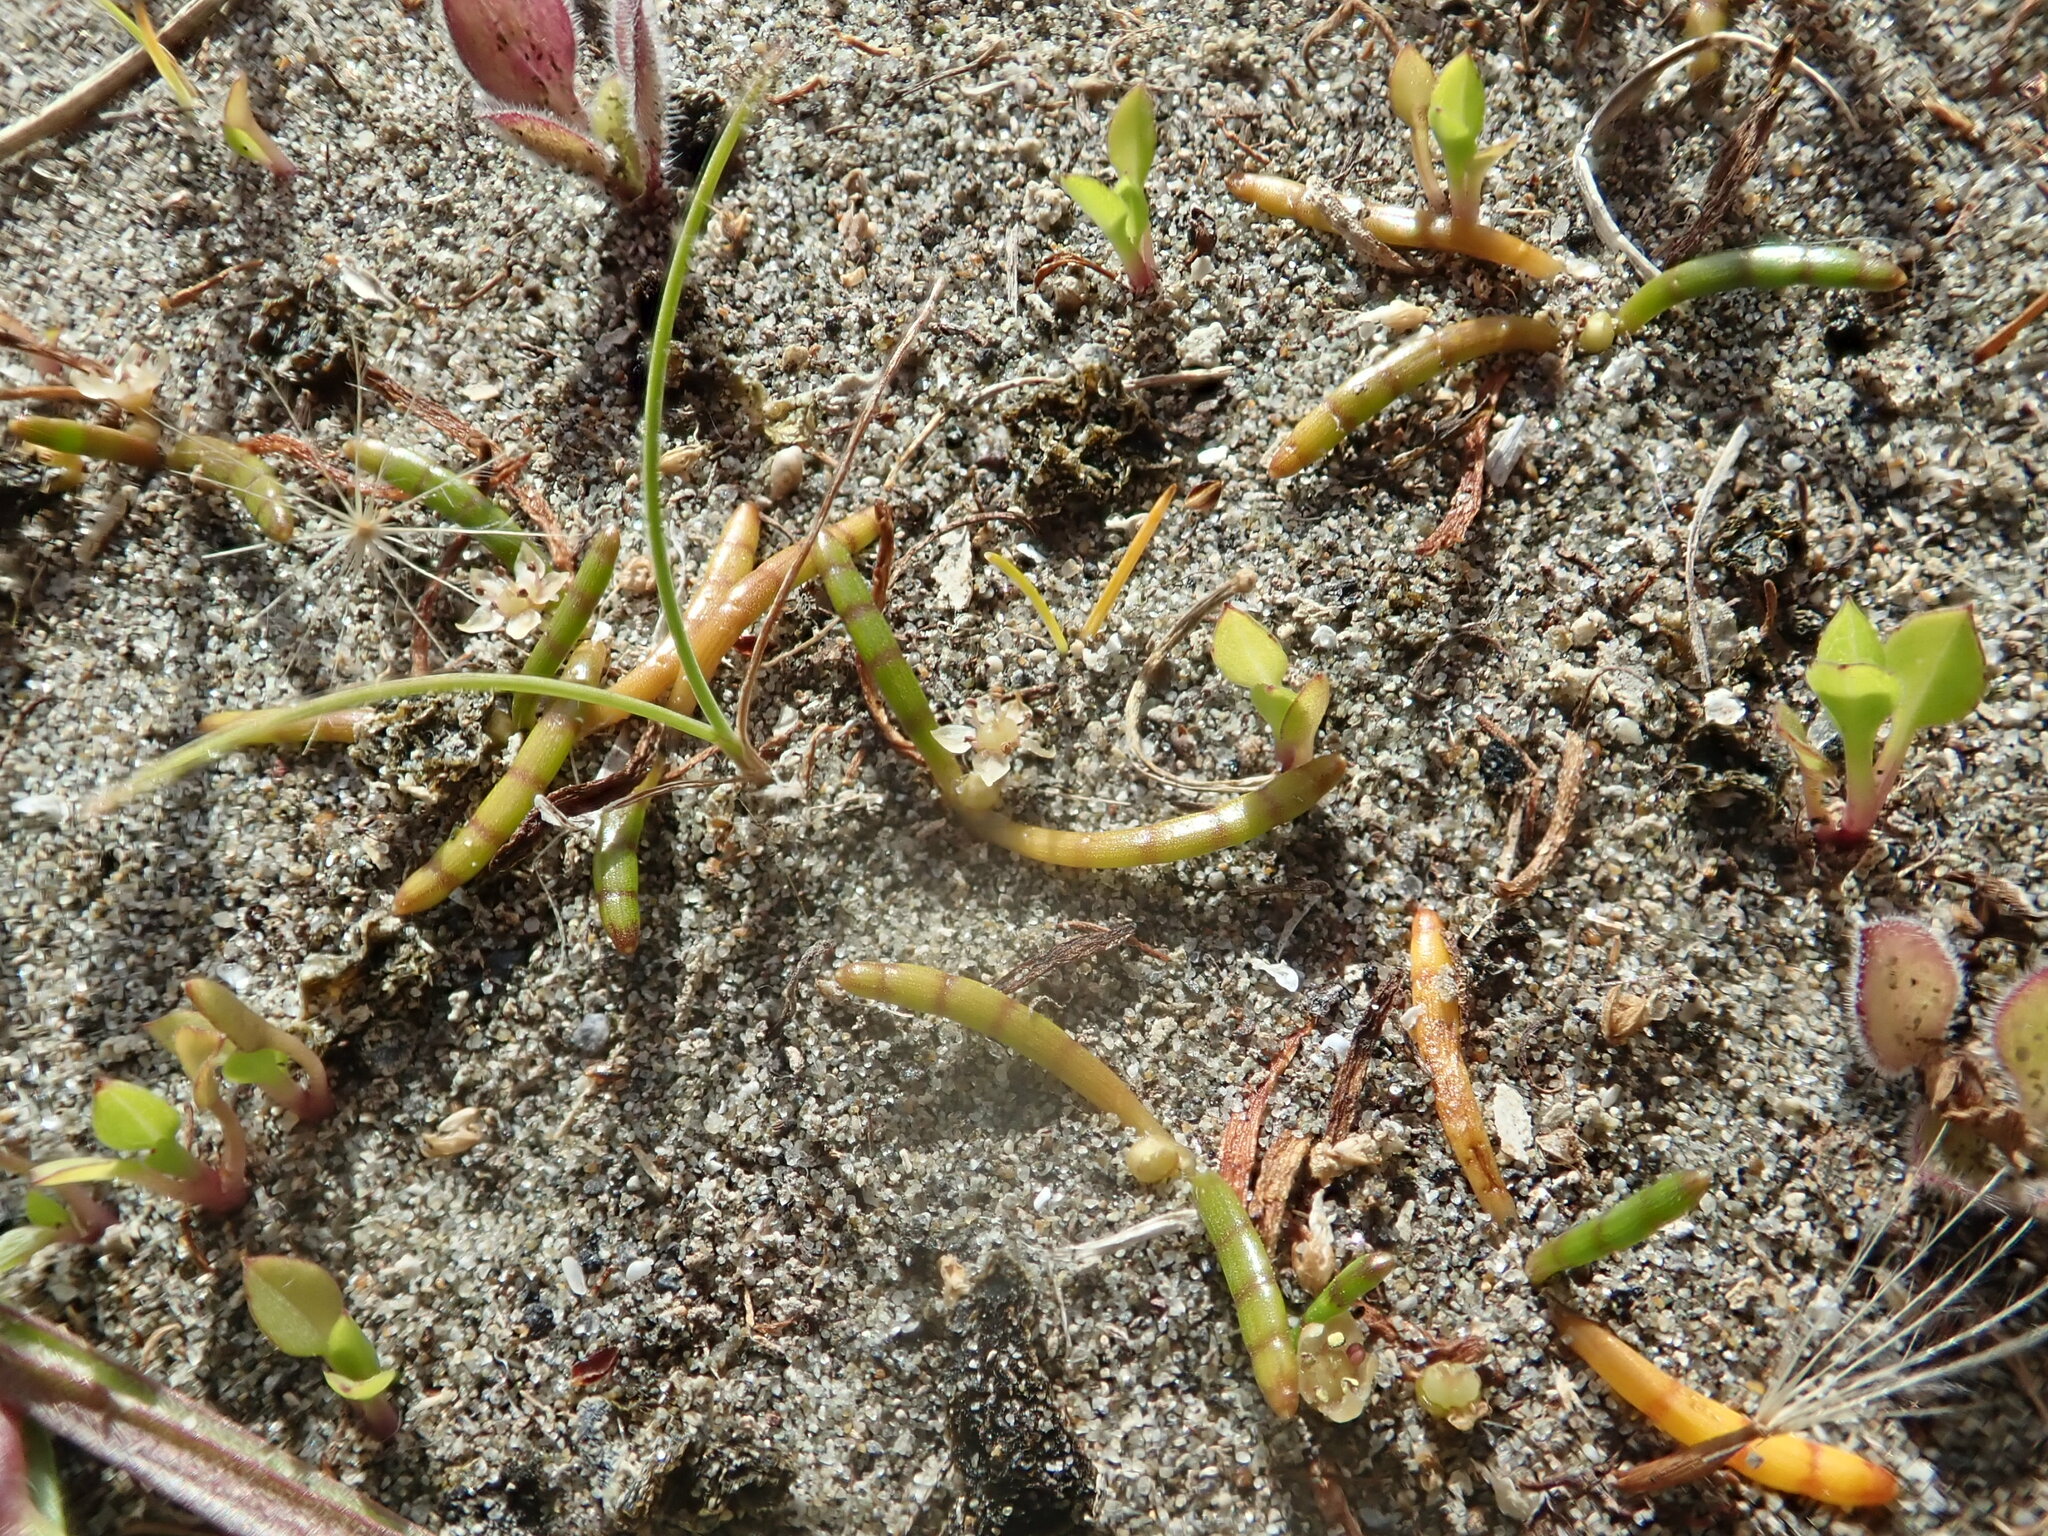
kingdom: Plantae
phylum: Tracheophyta
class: Magnoliopsida
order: Apiales
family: Apiaceae
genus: Lilaeopsis
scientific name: Lilaeopsis novae-zelandiae
